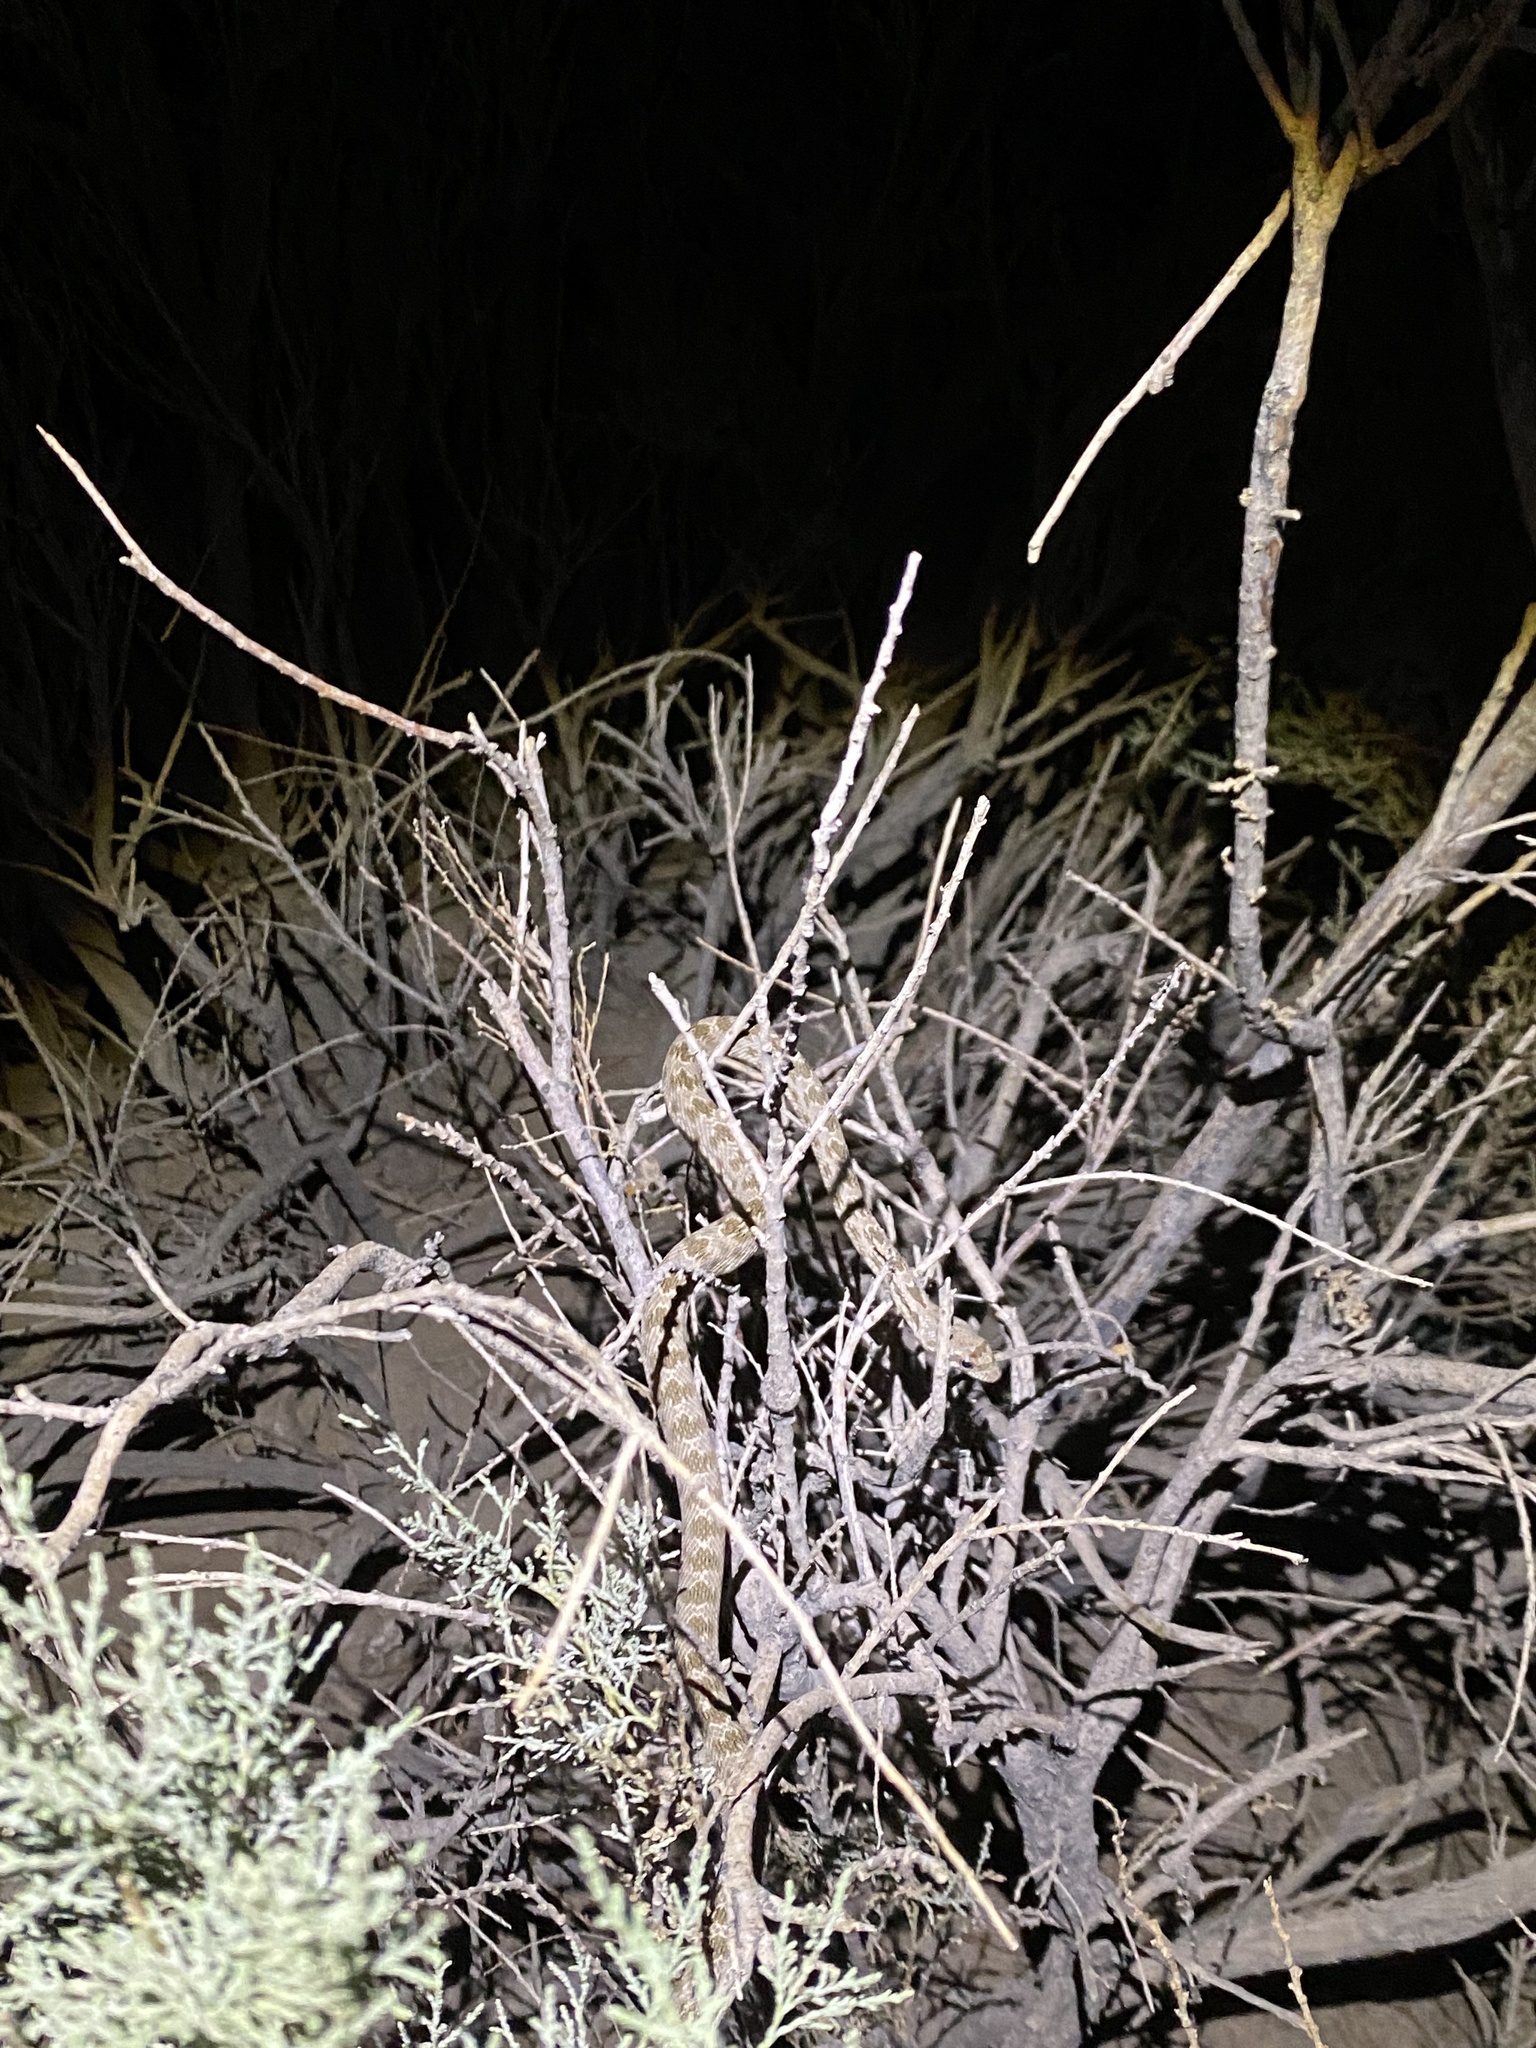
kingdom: Animalia
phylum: Chordata
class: Squamata
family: Colubridae
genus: Spalerosophis
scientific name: Spalerosophis diadema
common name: Diadem snake
